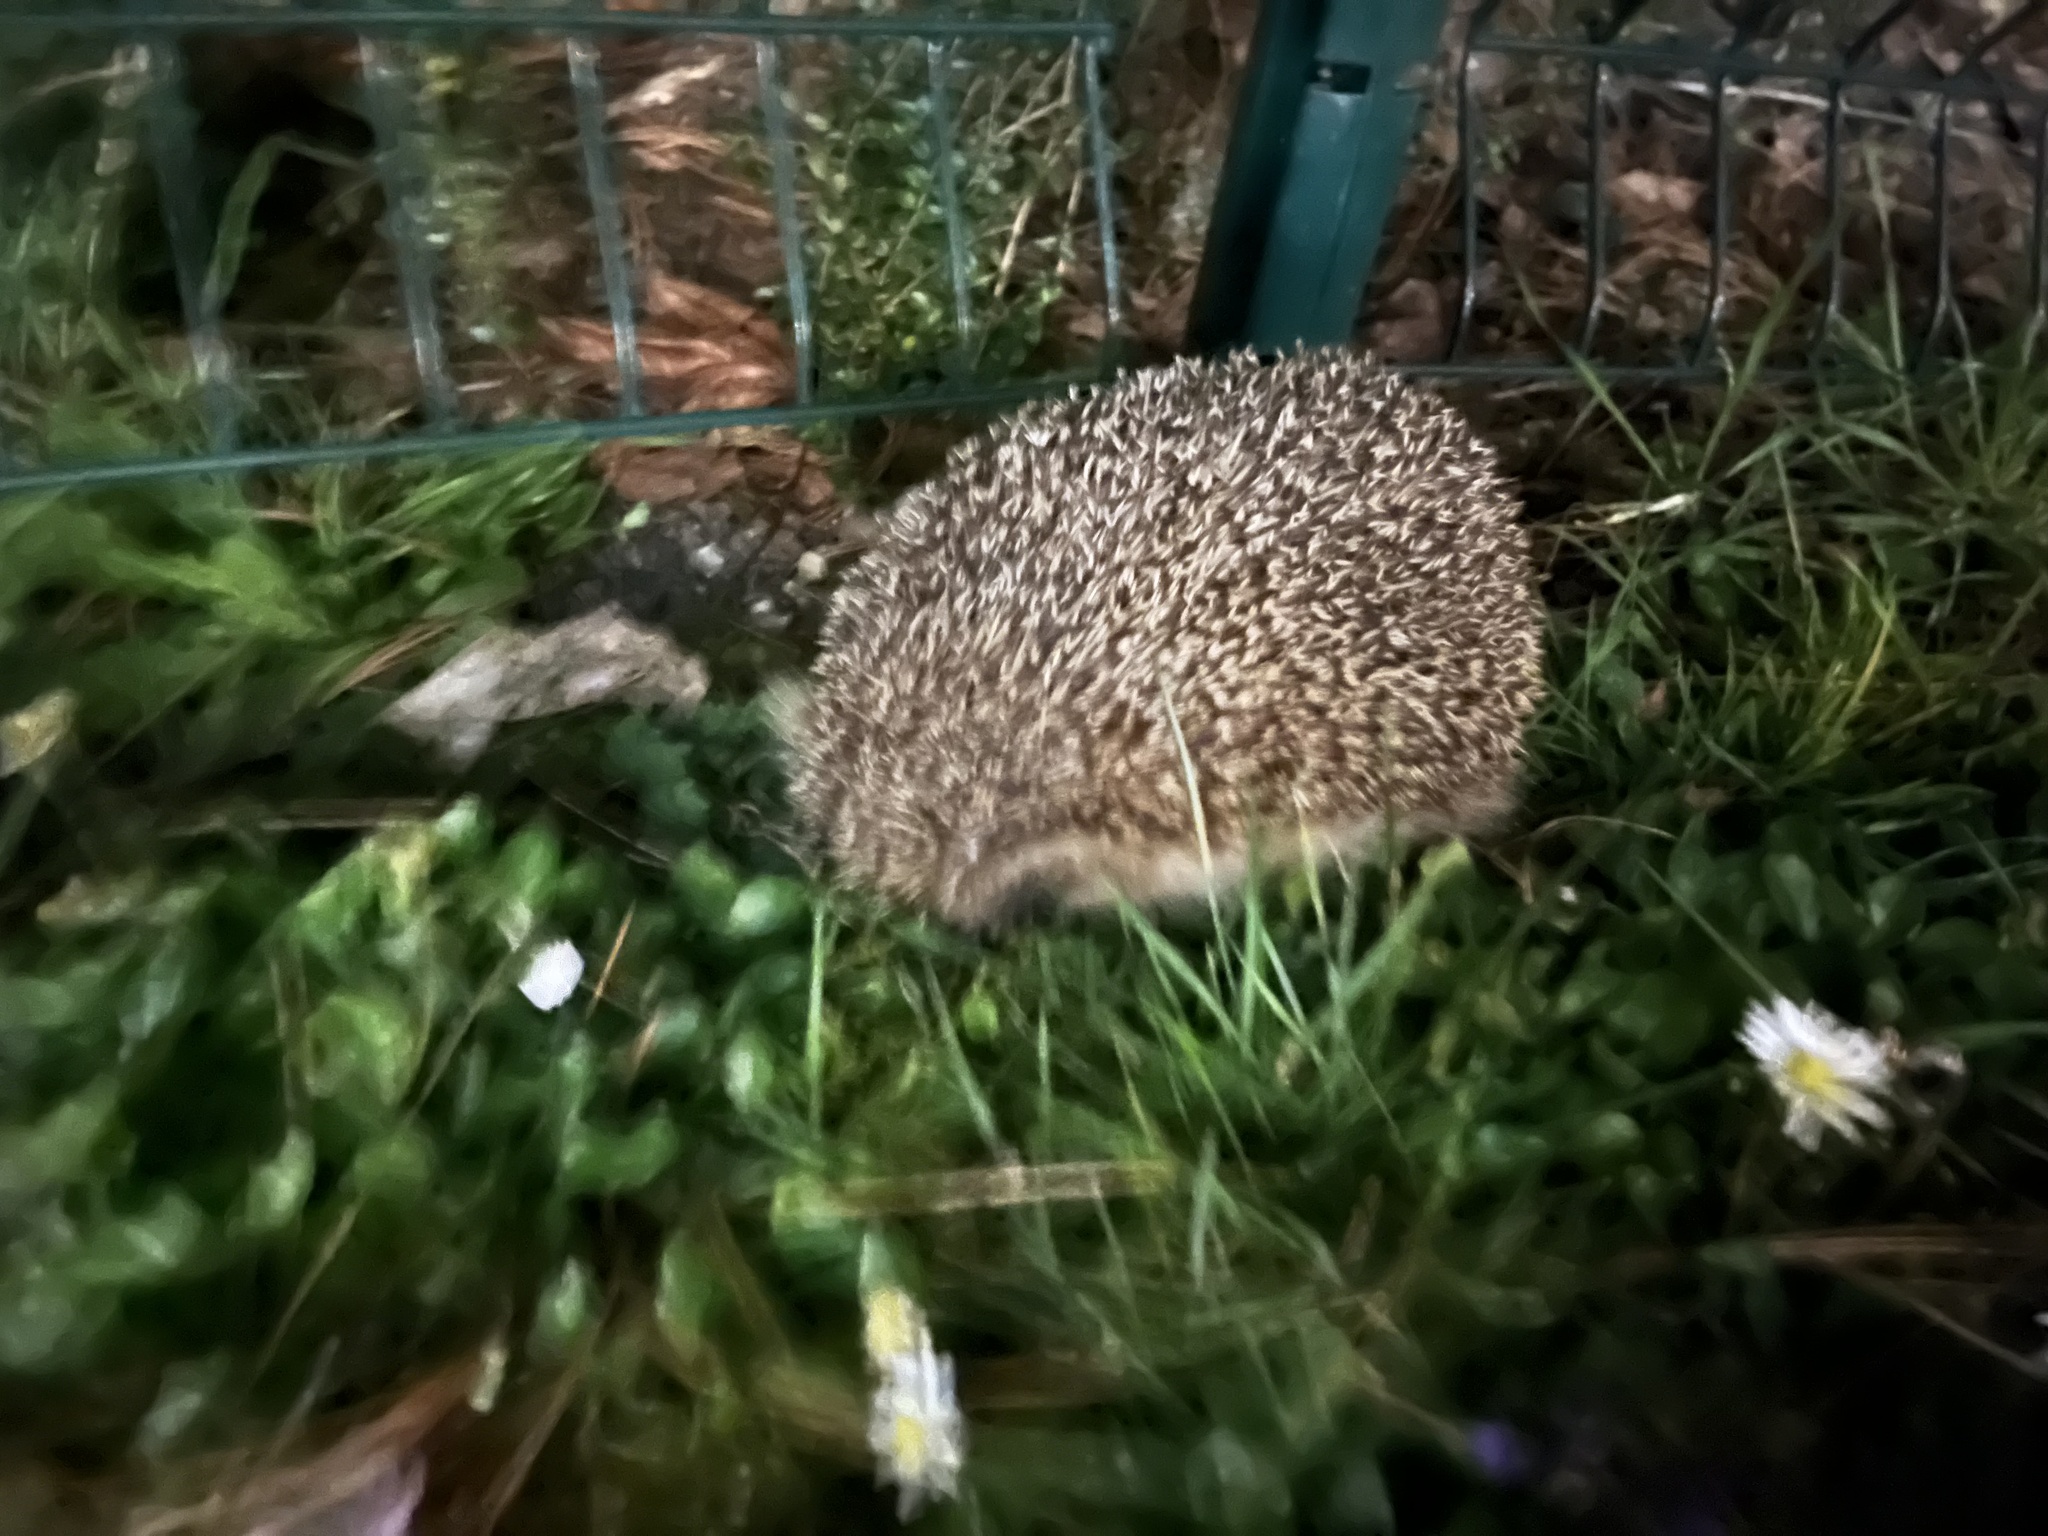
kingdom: Animalia
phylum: Chordata
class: Mammalia
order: Erinaceomorpha
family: Erinaceidae
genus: Erinaceus
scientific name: Erinaceus europaeus
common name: West european hedgehog
